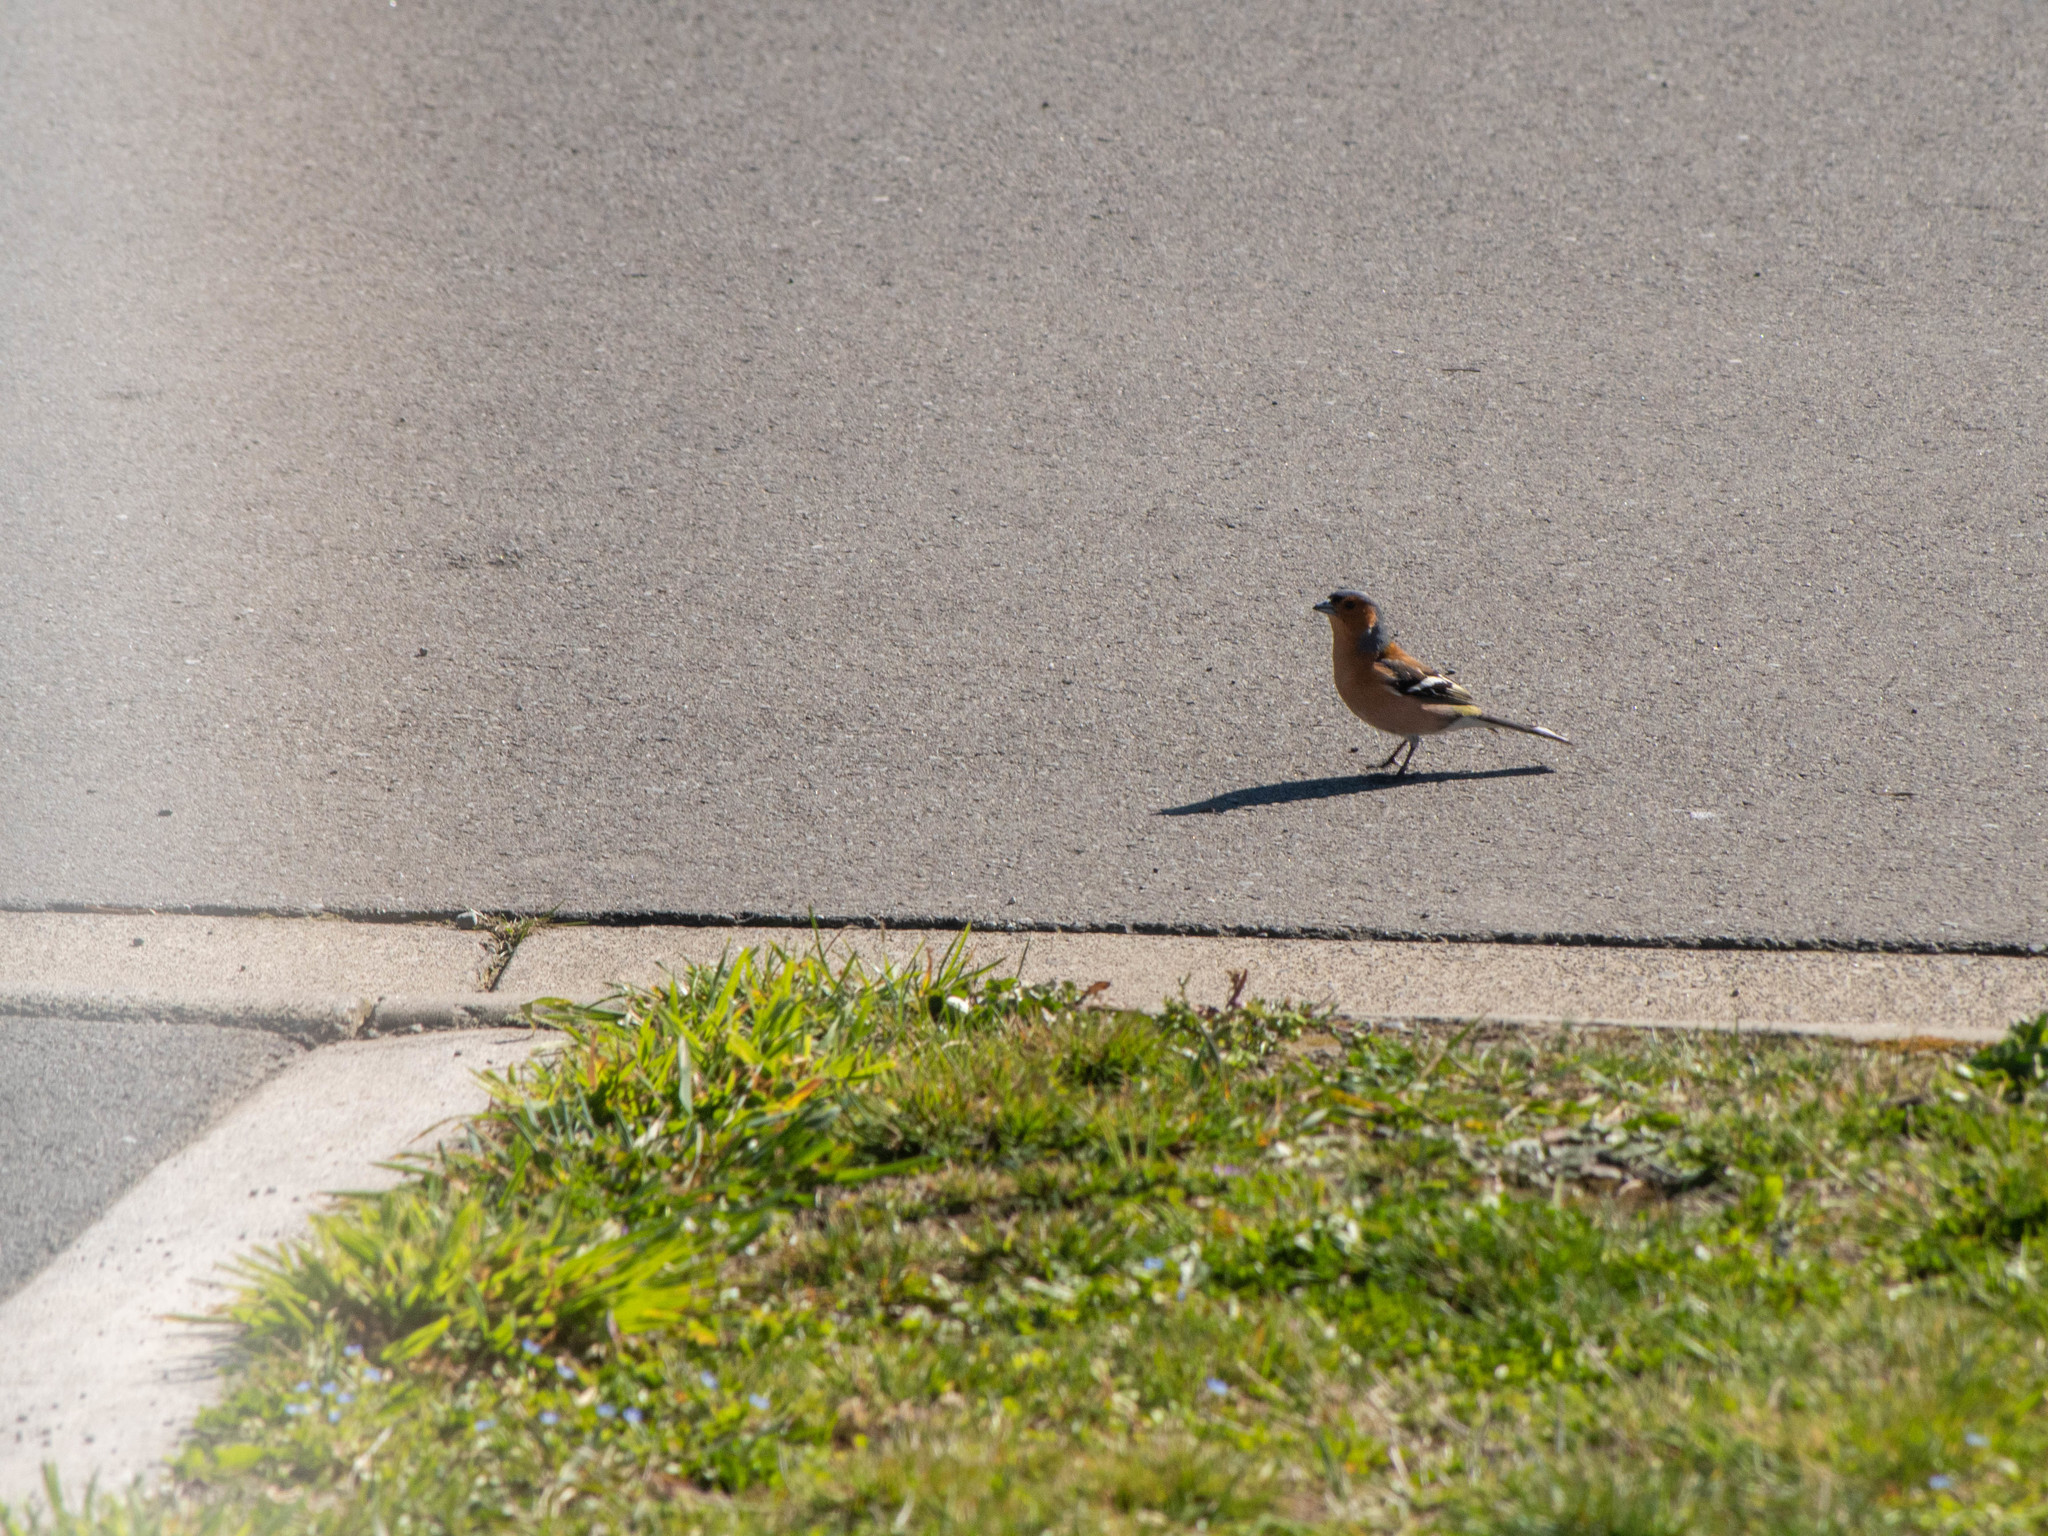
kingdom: Animalia
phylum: Chordata
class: Aves
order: Passeriformes
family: Fringillidae
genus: Fringilla
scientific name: Fringilla coelebs
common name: Common chaffinch
